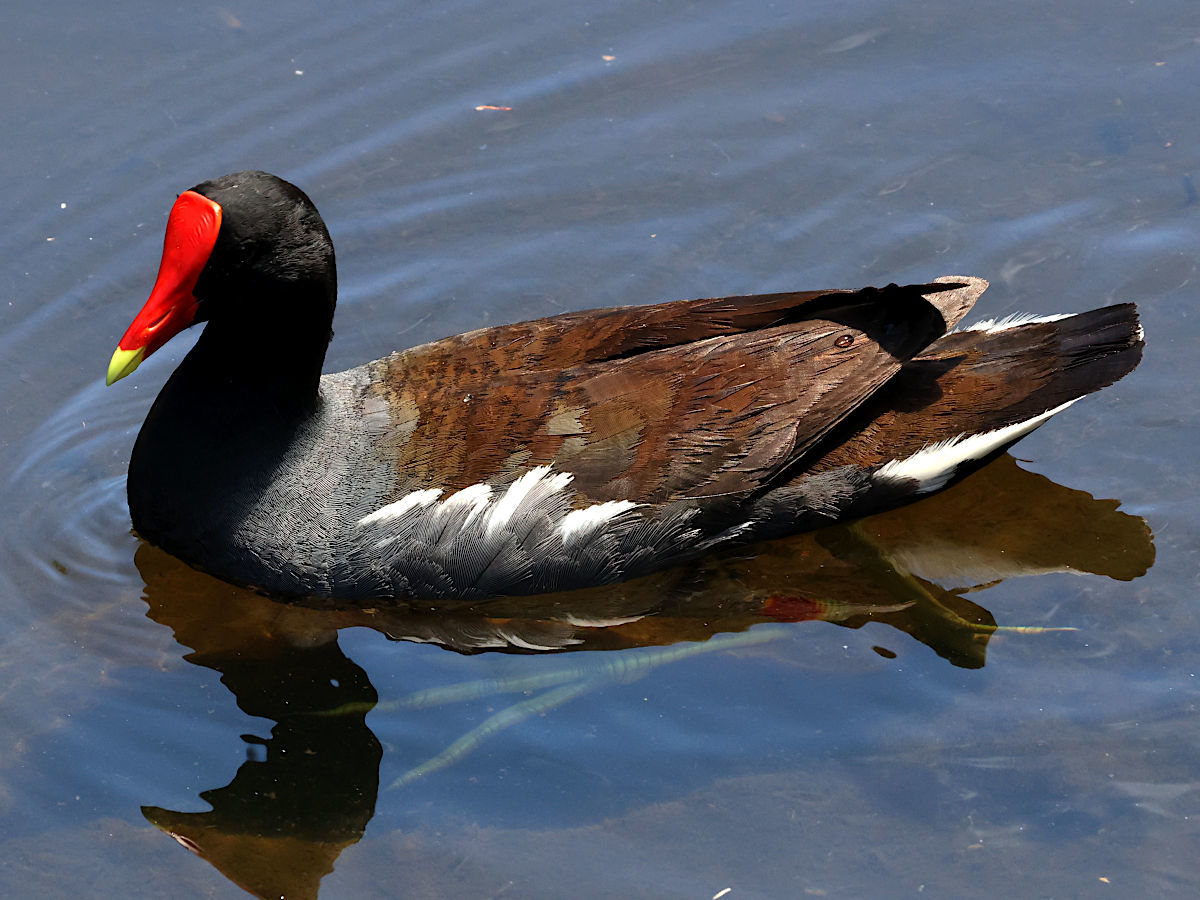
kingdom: Animalia
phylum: Chordata
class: Aves
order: Gruiformes
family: Rallidae
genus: Gallinula
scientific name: Gallinula chloropus
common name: Common moorhen
